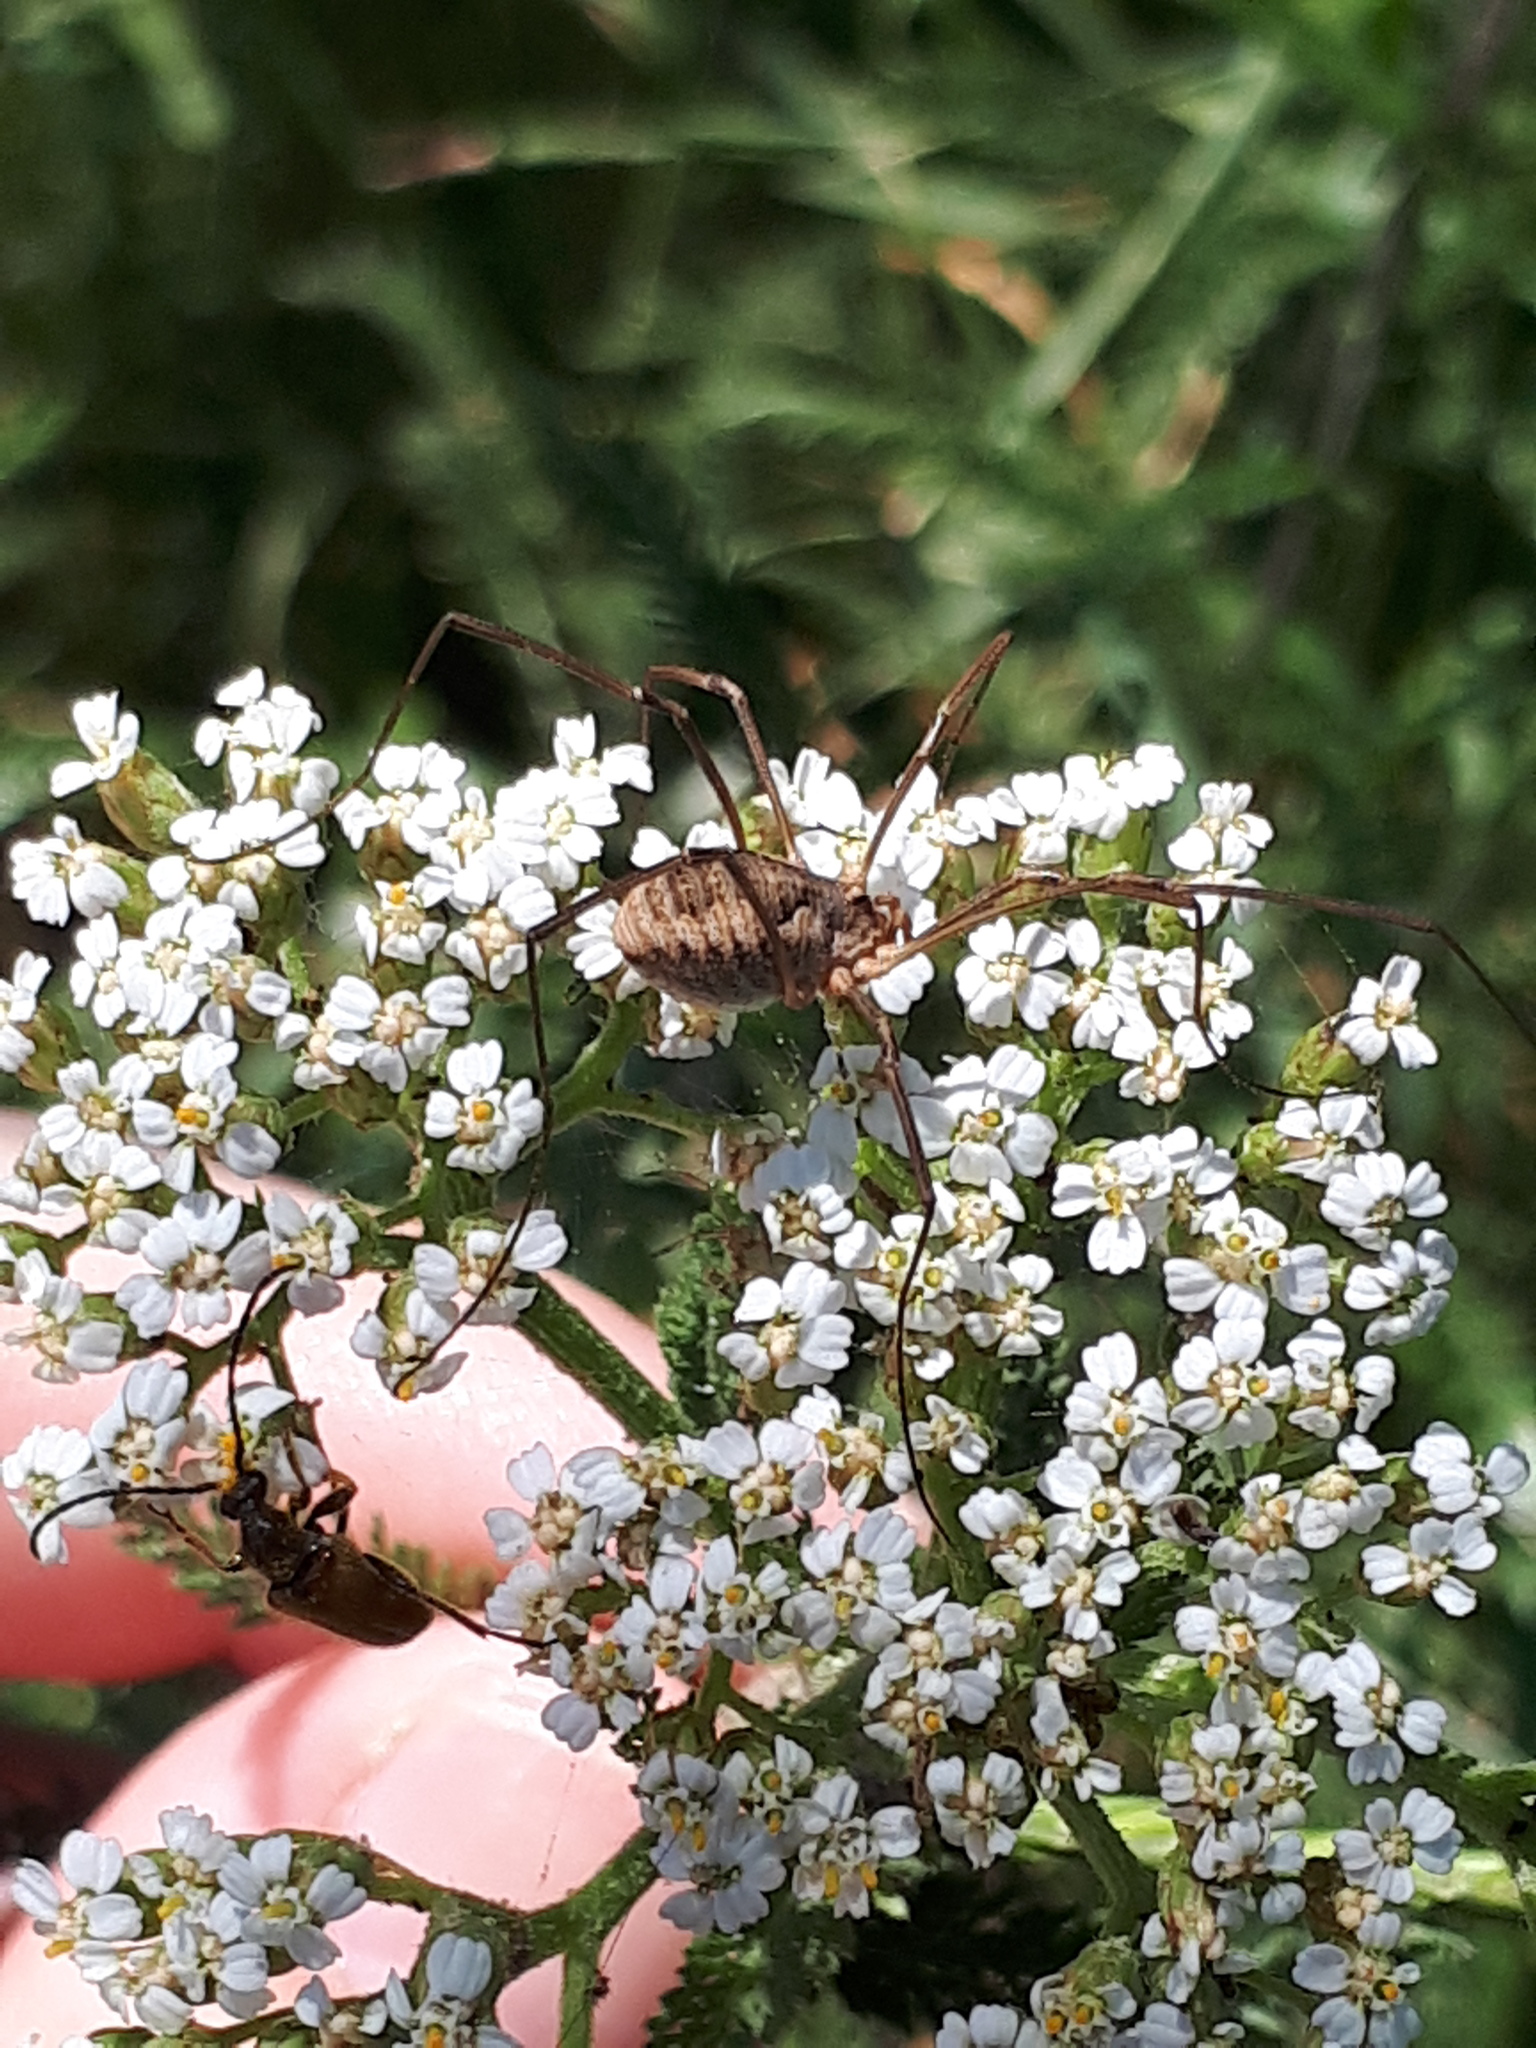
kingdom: Animalia
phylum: Arthropoda
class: Arachnida
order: Opiliones
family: Phalangiidae
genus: Phalangium
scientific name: Phalangium opilio
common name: Daddy longleg
